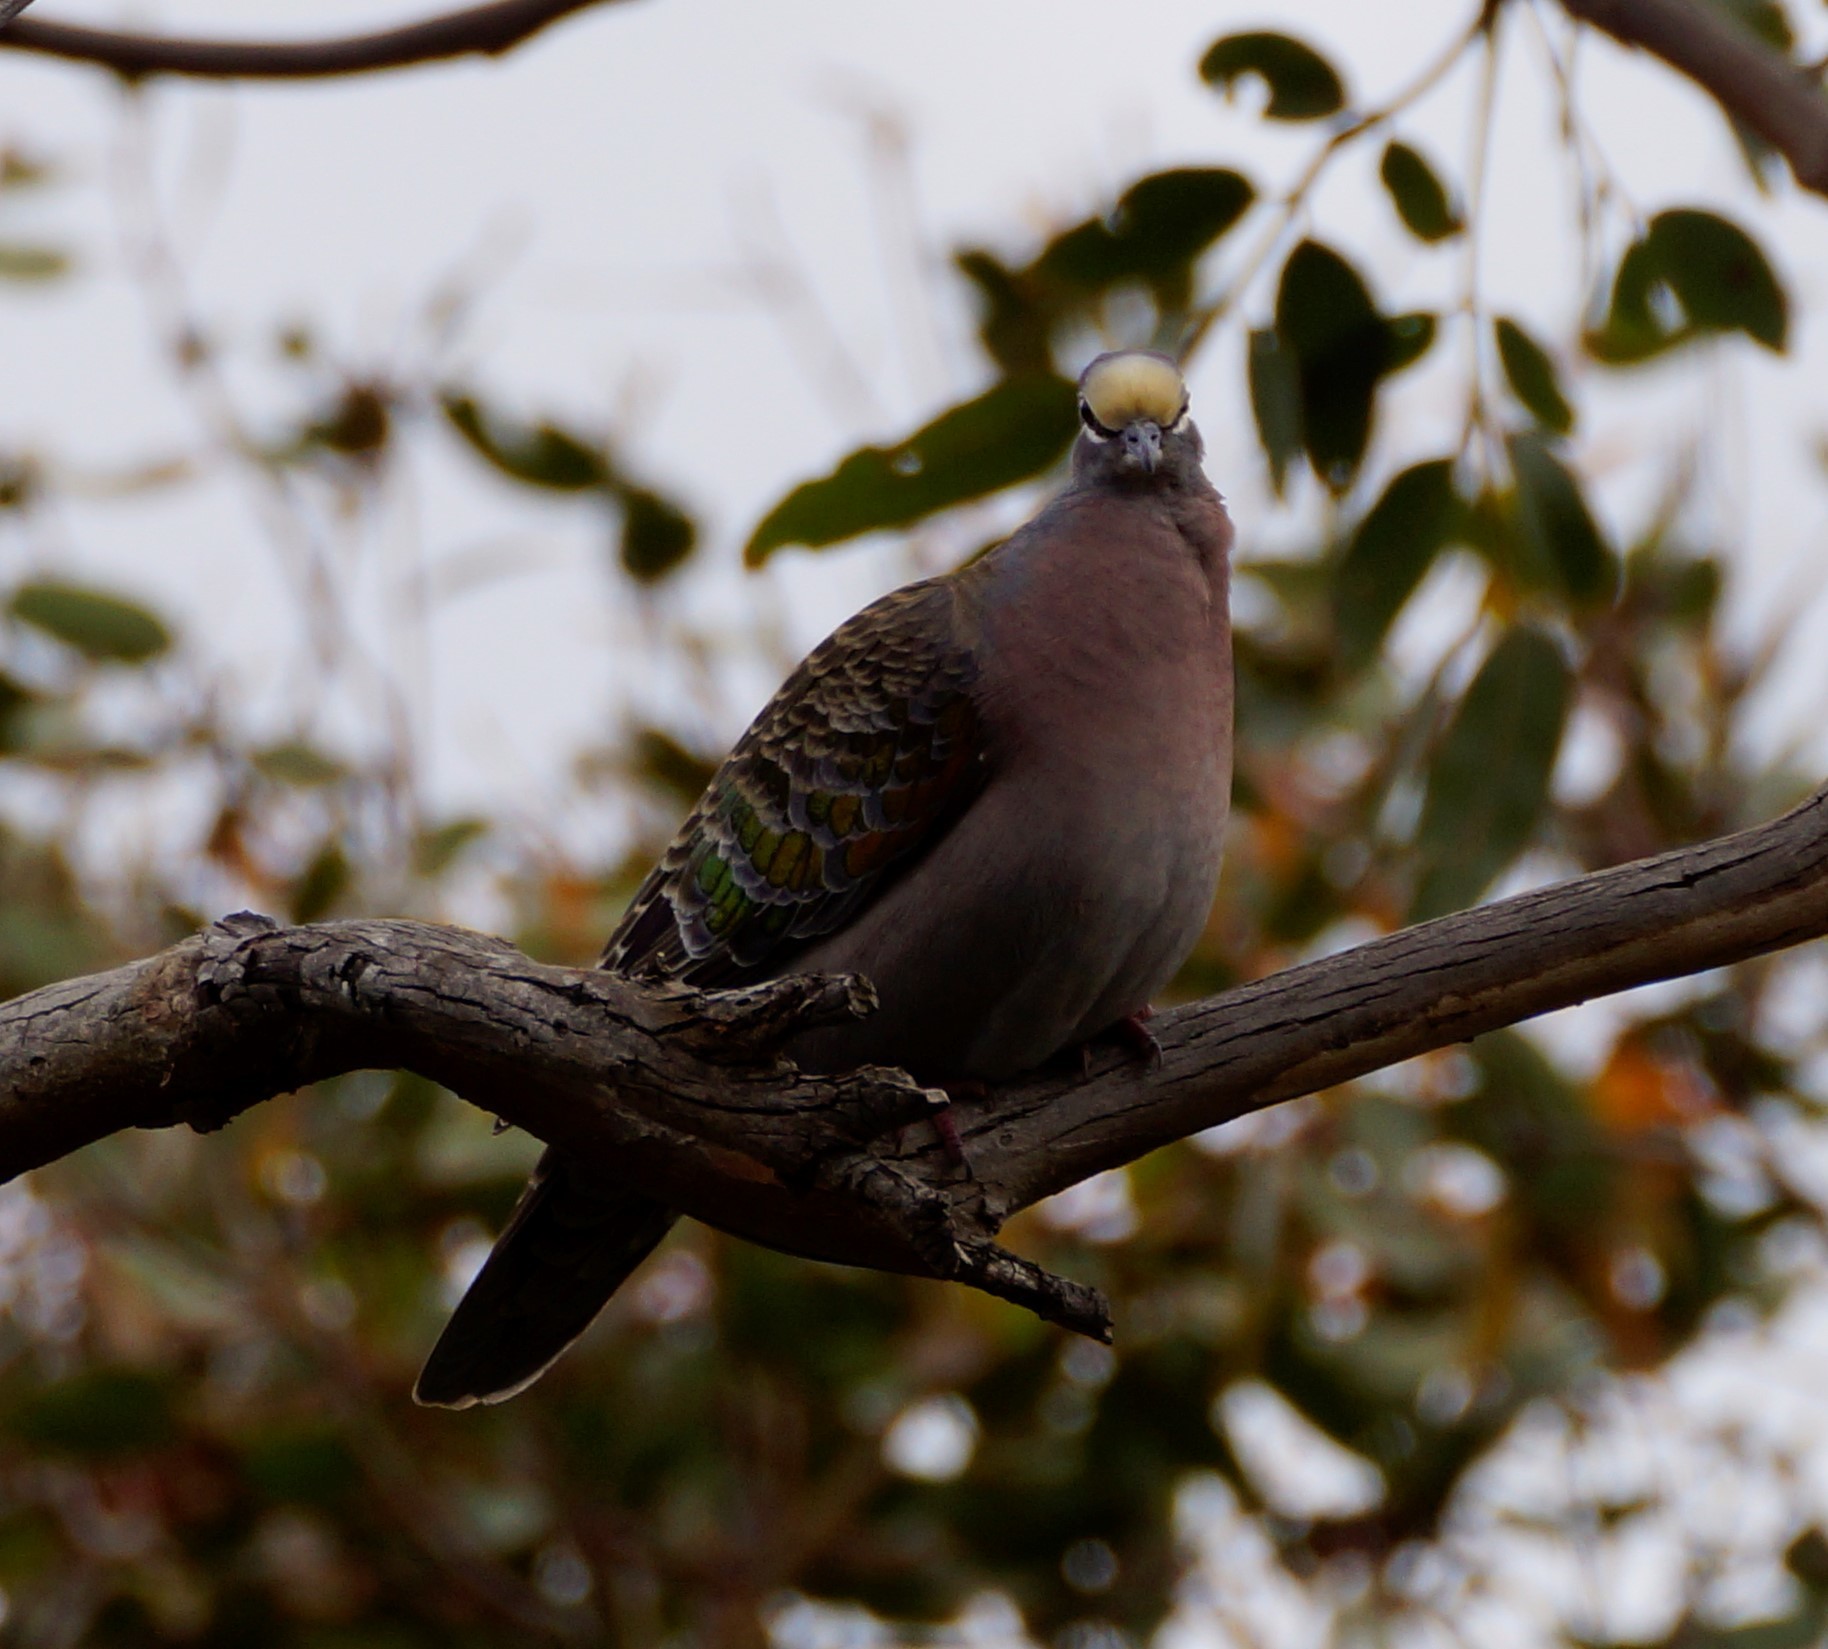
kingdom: Animalia
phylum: Chordata
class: Aves
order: Columbiformes
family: Columbidae
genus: Phaps
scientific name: Phaps chalcoptera
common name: Common bronzewing
